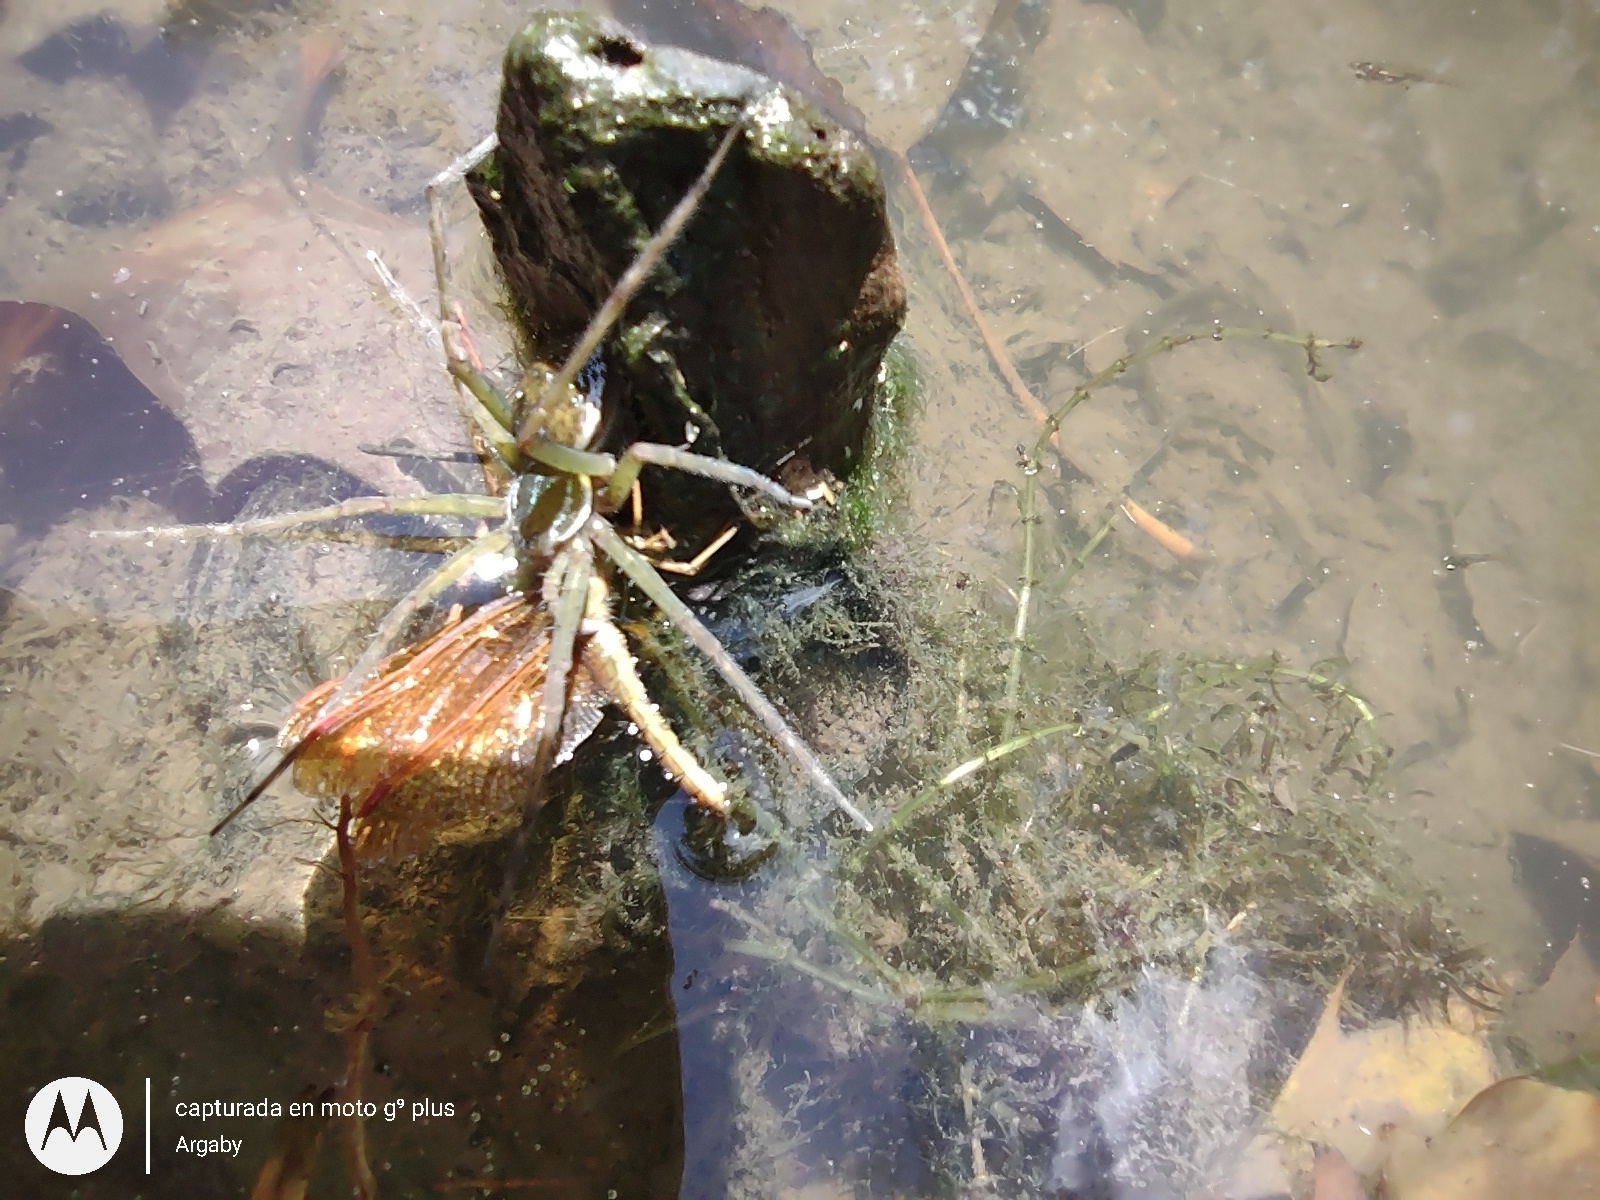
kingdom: Animalia
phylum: Arthropoda
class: Arachnida
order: Araneae
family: Pisauridae
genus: Thaumasia
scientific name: Thaumasia velox
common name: Nursery web spiders
